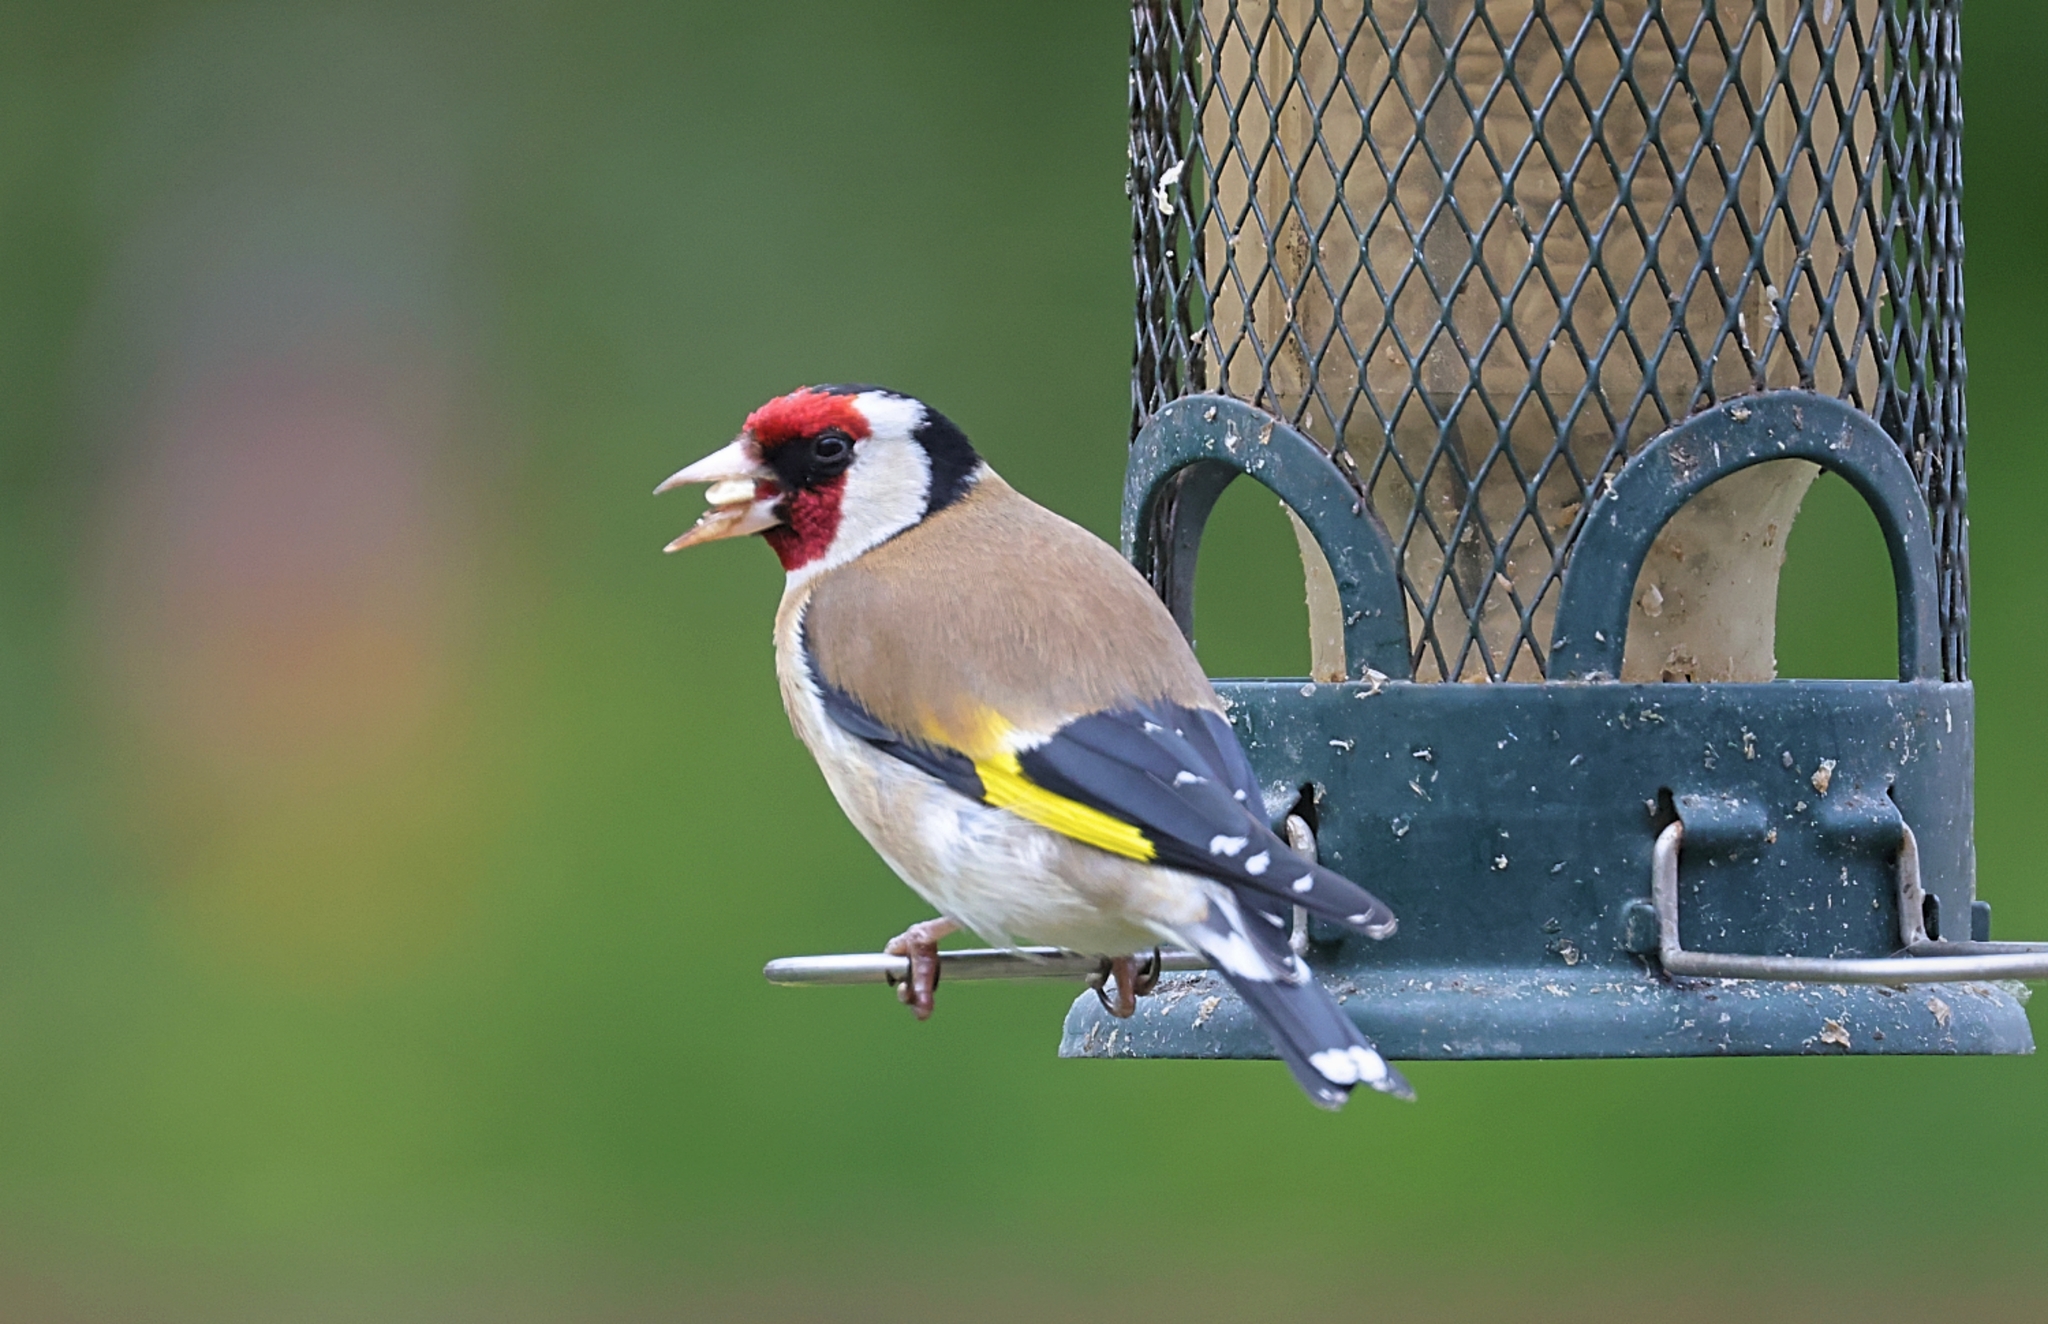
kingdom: Animalia
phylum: Chordata
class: Aves
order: Passeriformes
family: Fringillidae
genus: Carduelis
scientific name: Carduelis carduelis
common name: European goldfinch
